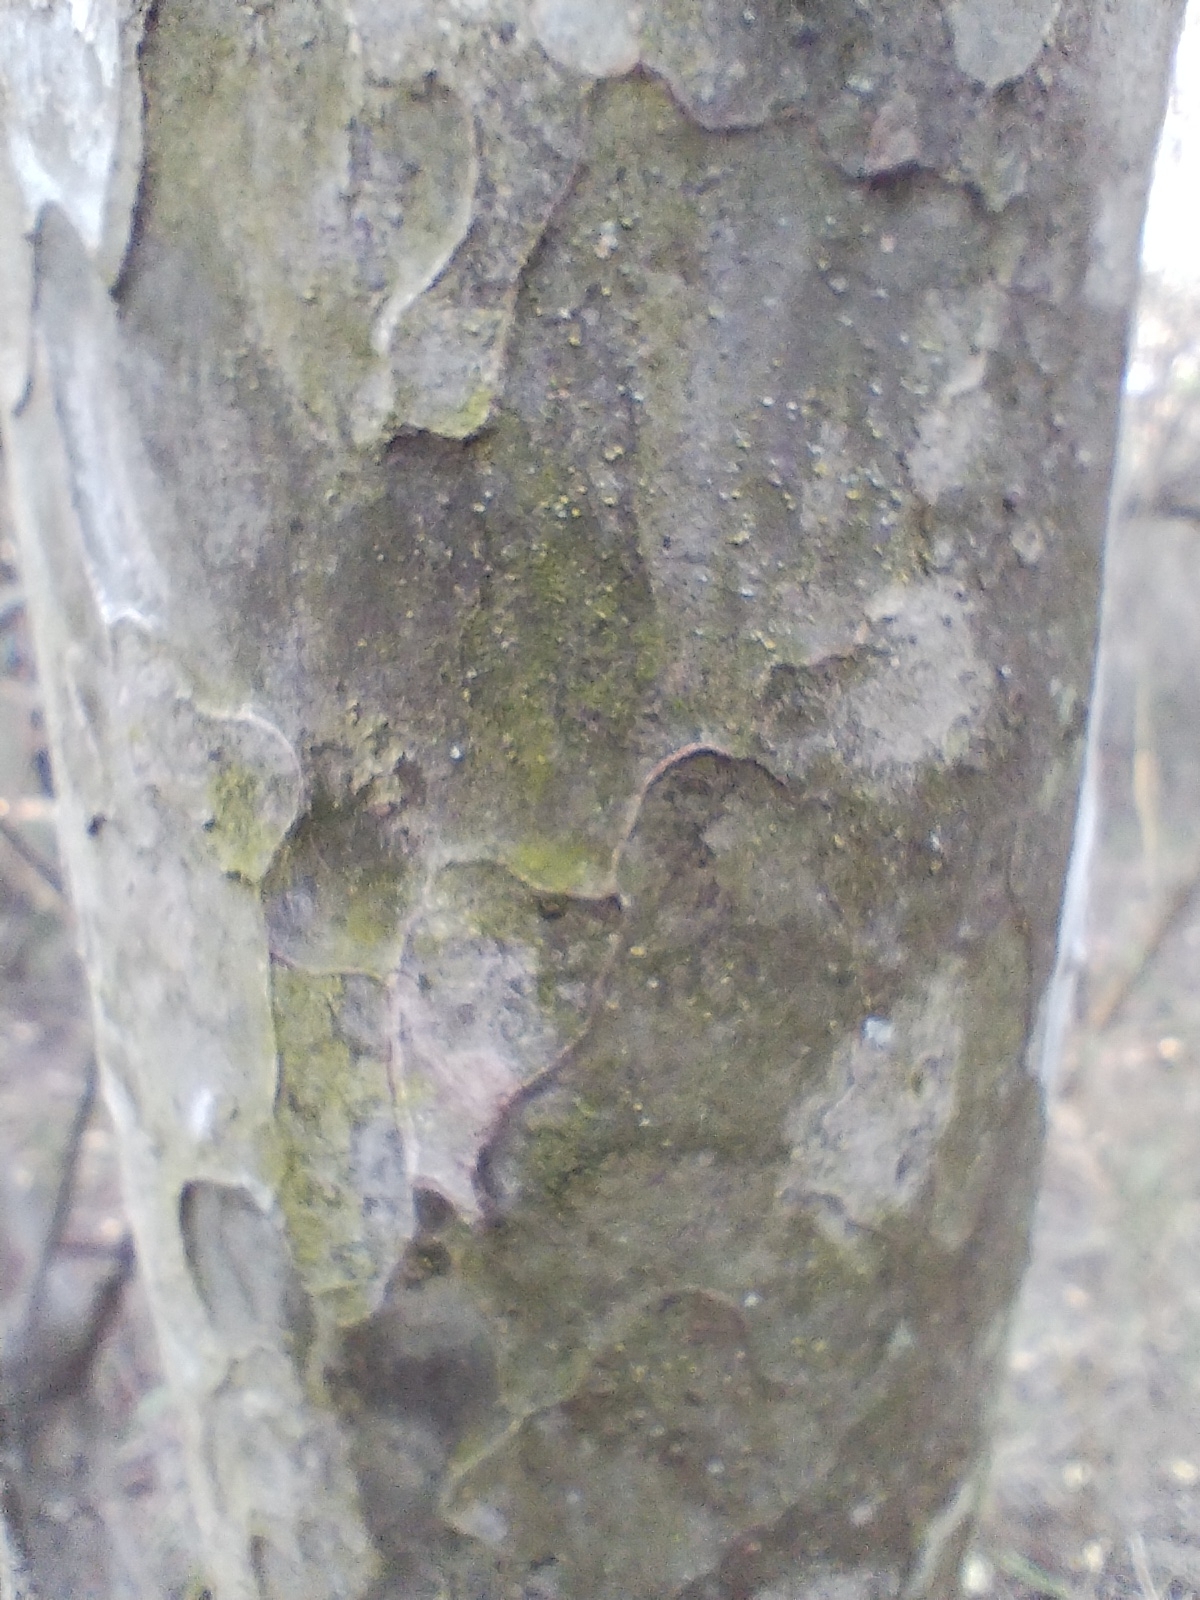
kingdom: Plantae
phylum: Tracheophyta
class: Magnoliopsida
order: Fabales
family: Fabaceae
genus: Libidibia
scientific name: Libidibia paraguariensis
